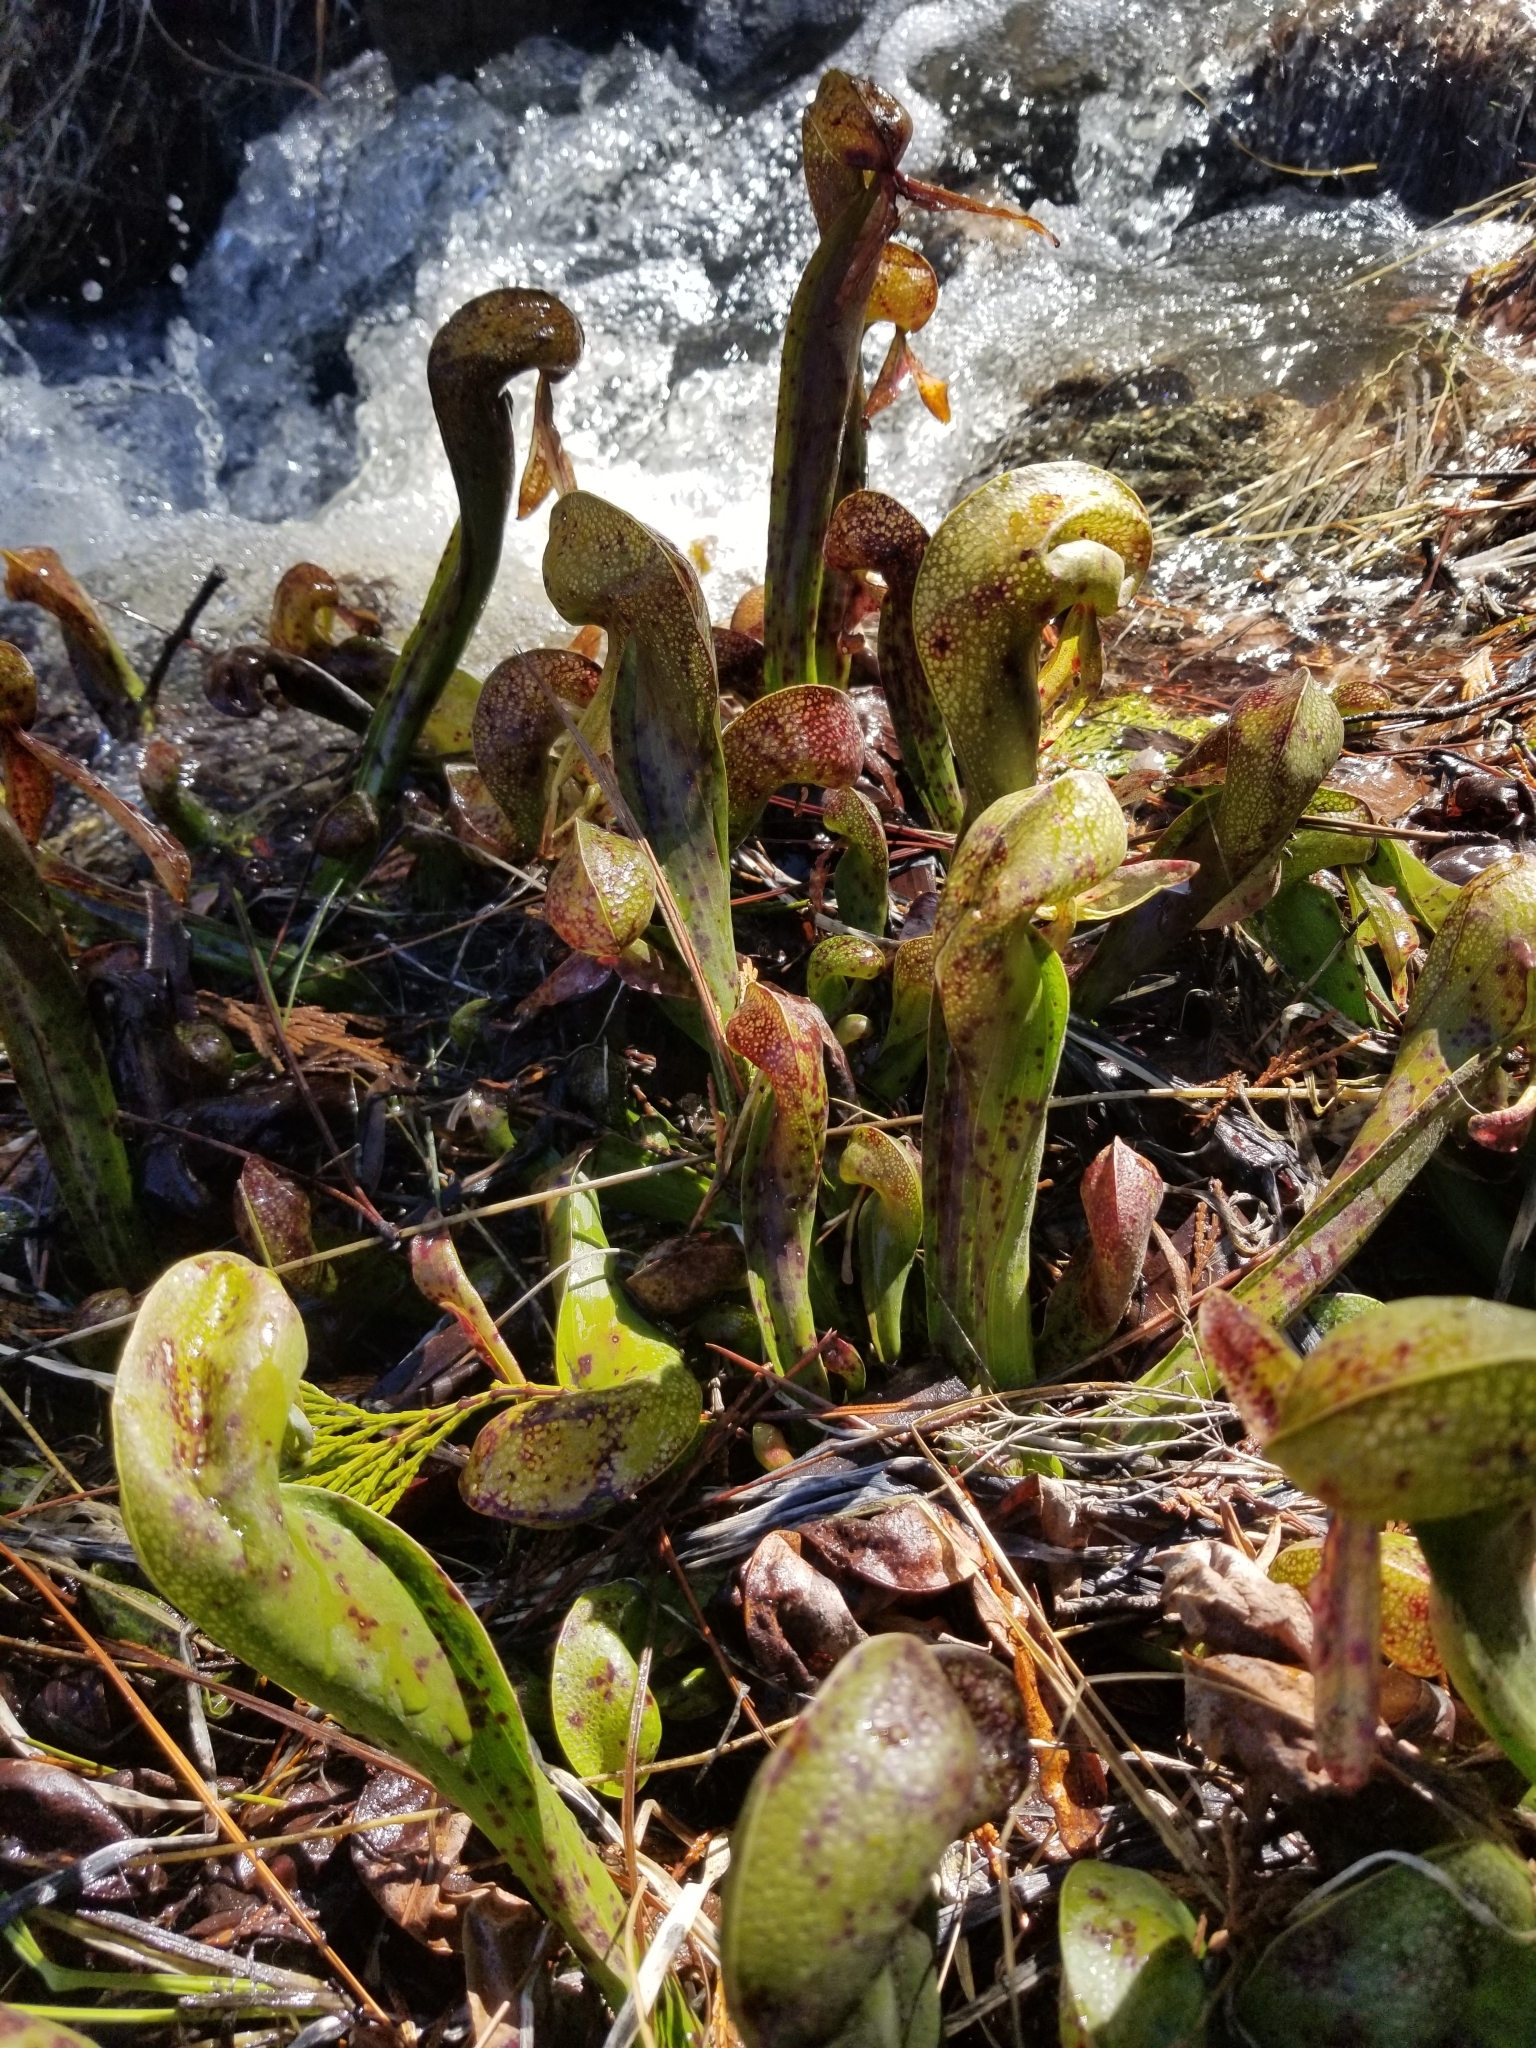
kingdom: Plantae
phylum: Tracheophyta
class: Magnoliopsida
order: Ericales
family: Sarraceniaceae
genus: Darlingtonia
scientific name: Darlingtonia californica
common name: California pitcher plant
